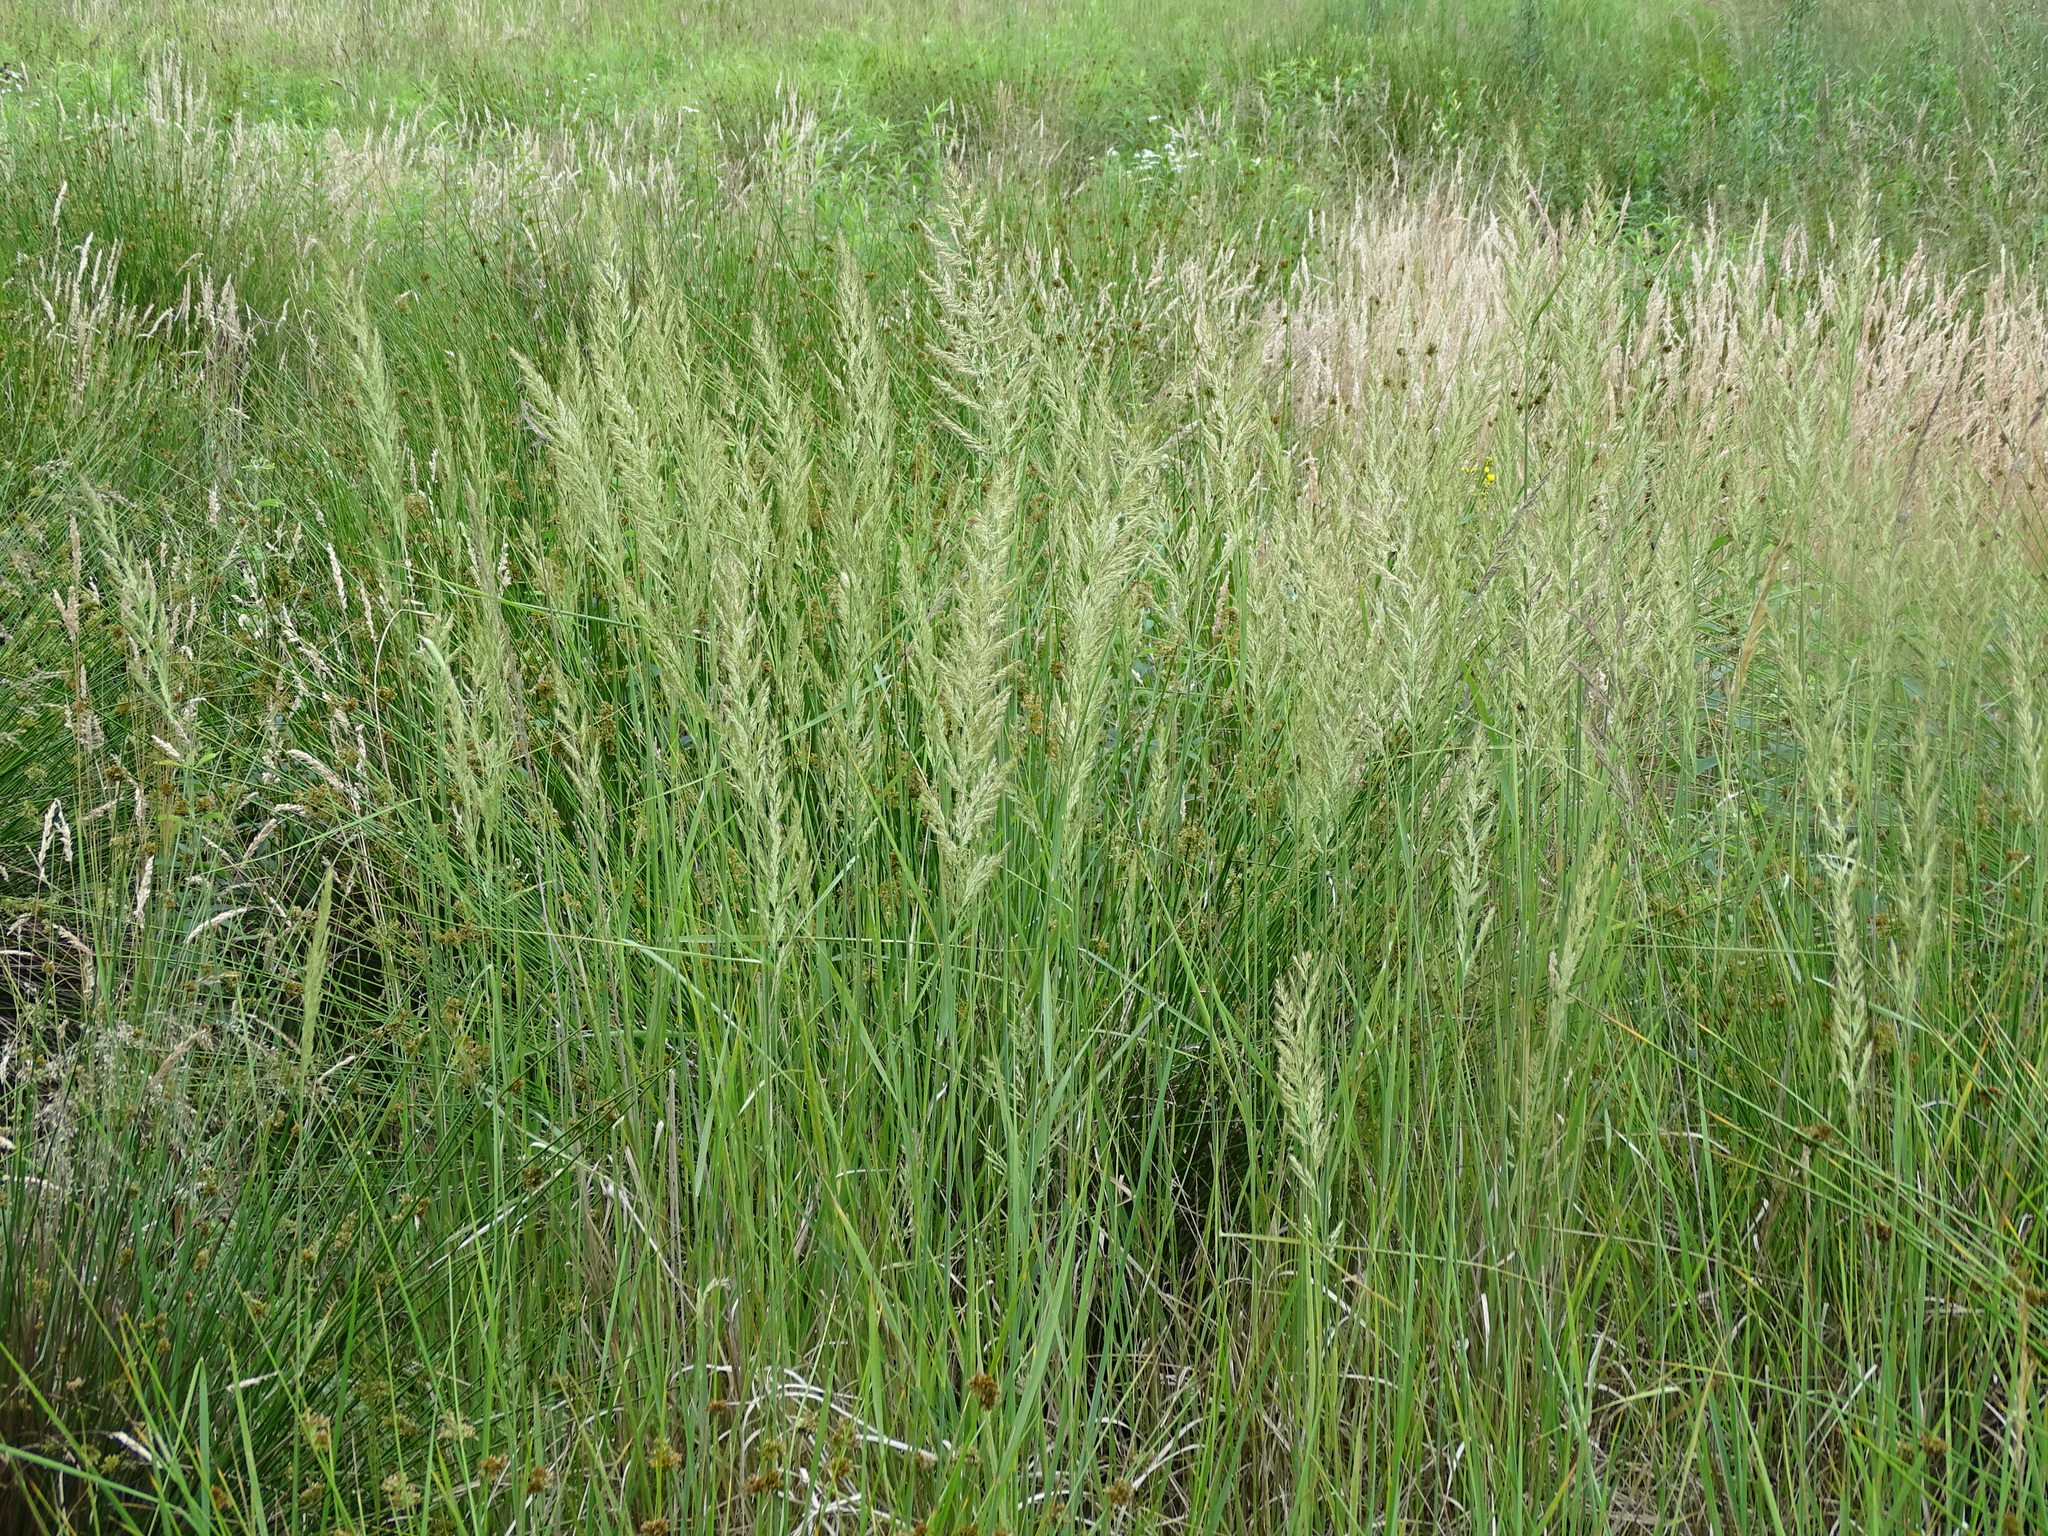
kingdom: Plantae
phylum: Tracheophyta
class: Liliopsida
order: Poales
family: Poaceae
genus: Calamagrostis
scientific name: Calamagrostis epigejos
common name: Wood small-reed
